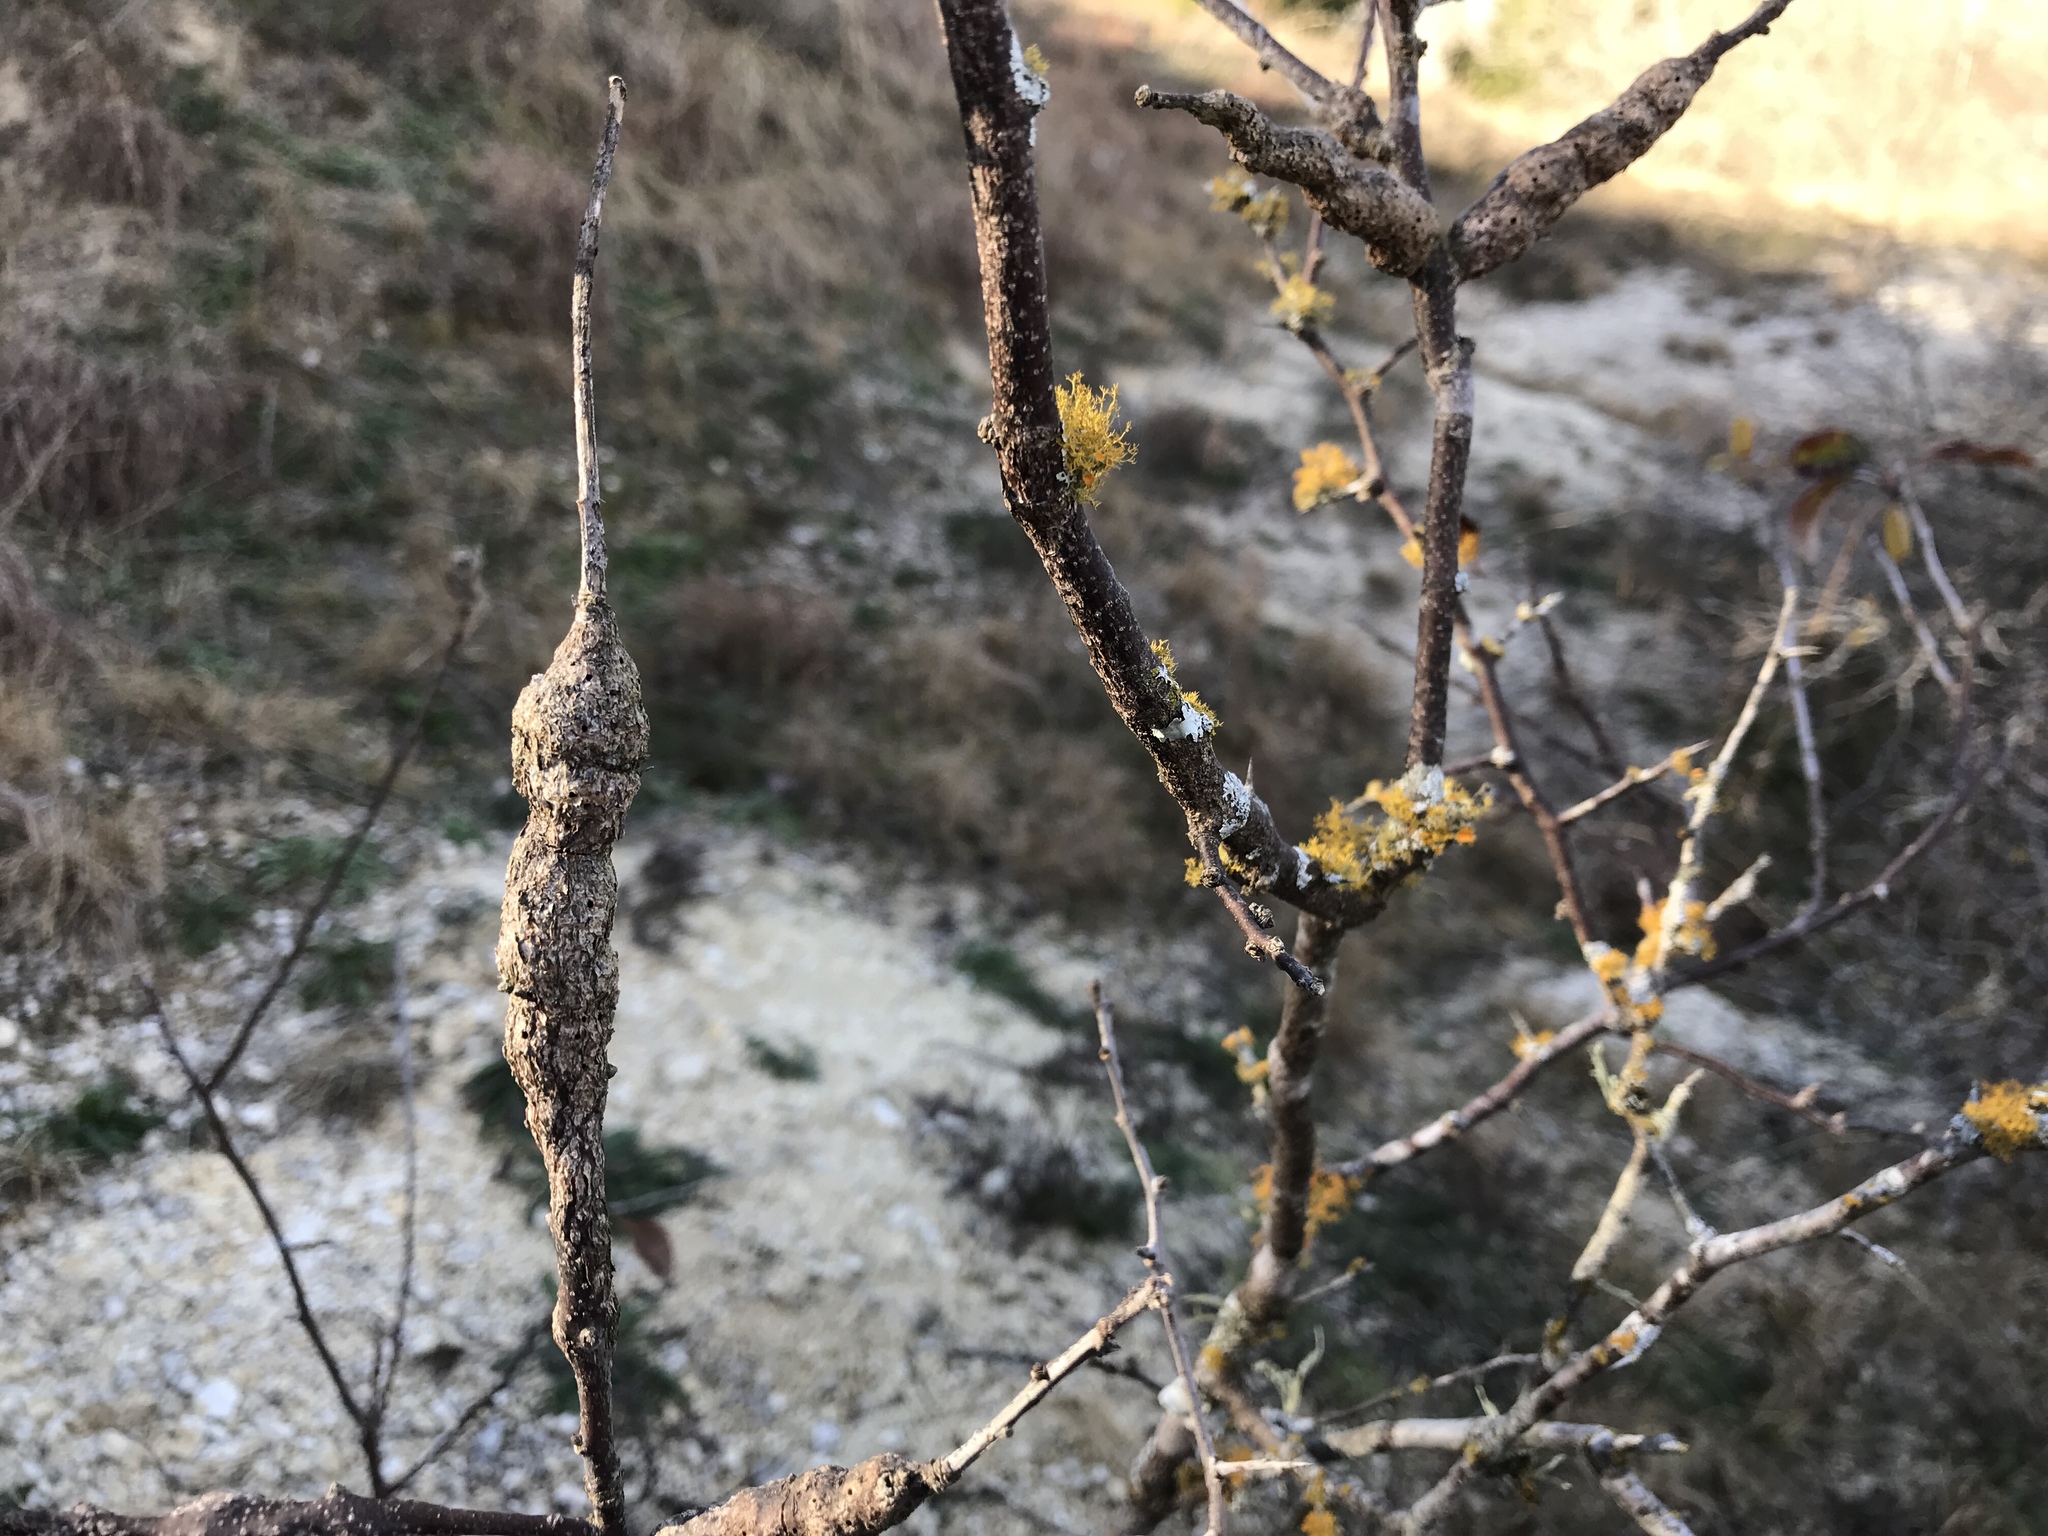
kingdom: Animalia
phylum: Arthropoda
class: Insecta
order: Diptera
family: Cecidomyiidae
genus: Bruggmanniella
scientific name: Bruggmanniella bumeliae
